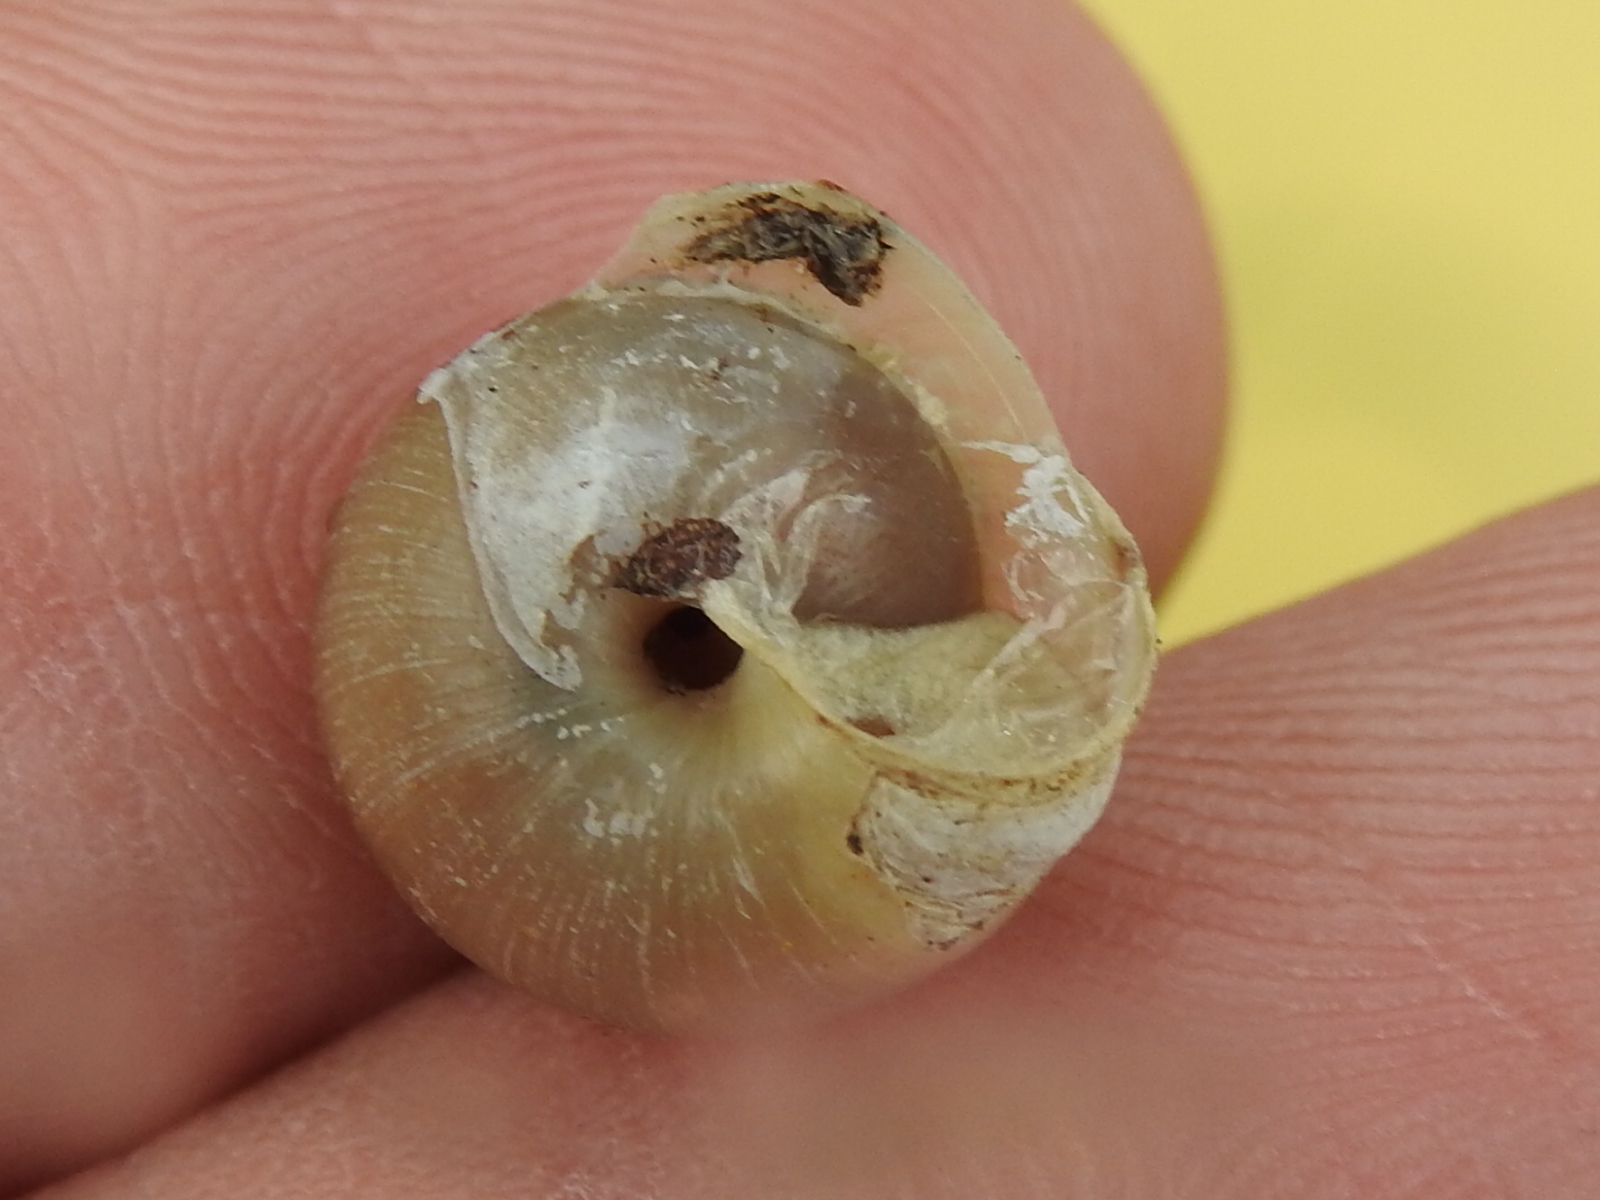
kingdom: Animalia
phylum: Mollusca
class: Gastropoda
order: Stylommatophora
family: Camaenidae
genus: Bradybaena
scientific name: Bradybaena similaris
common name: Asian trampsnail
